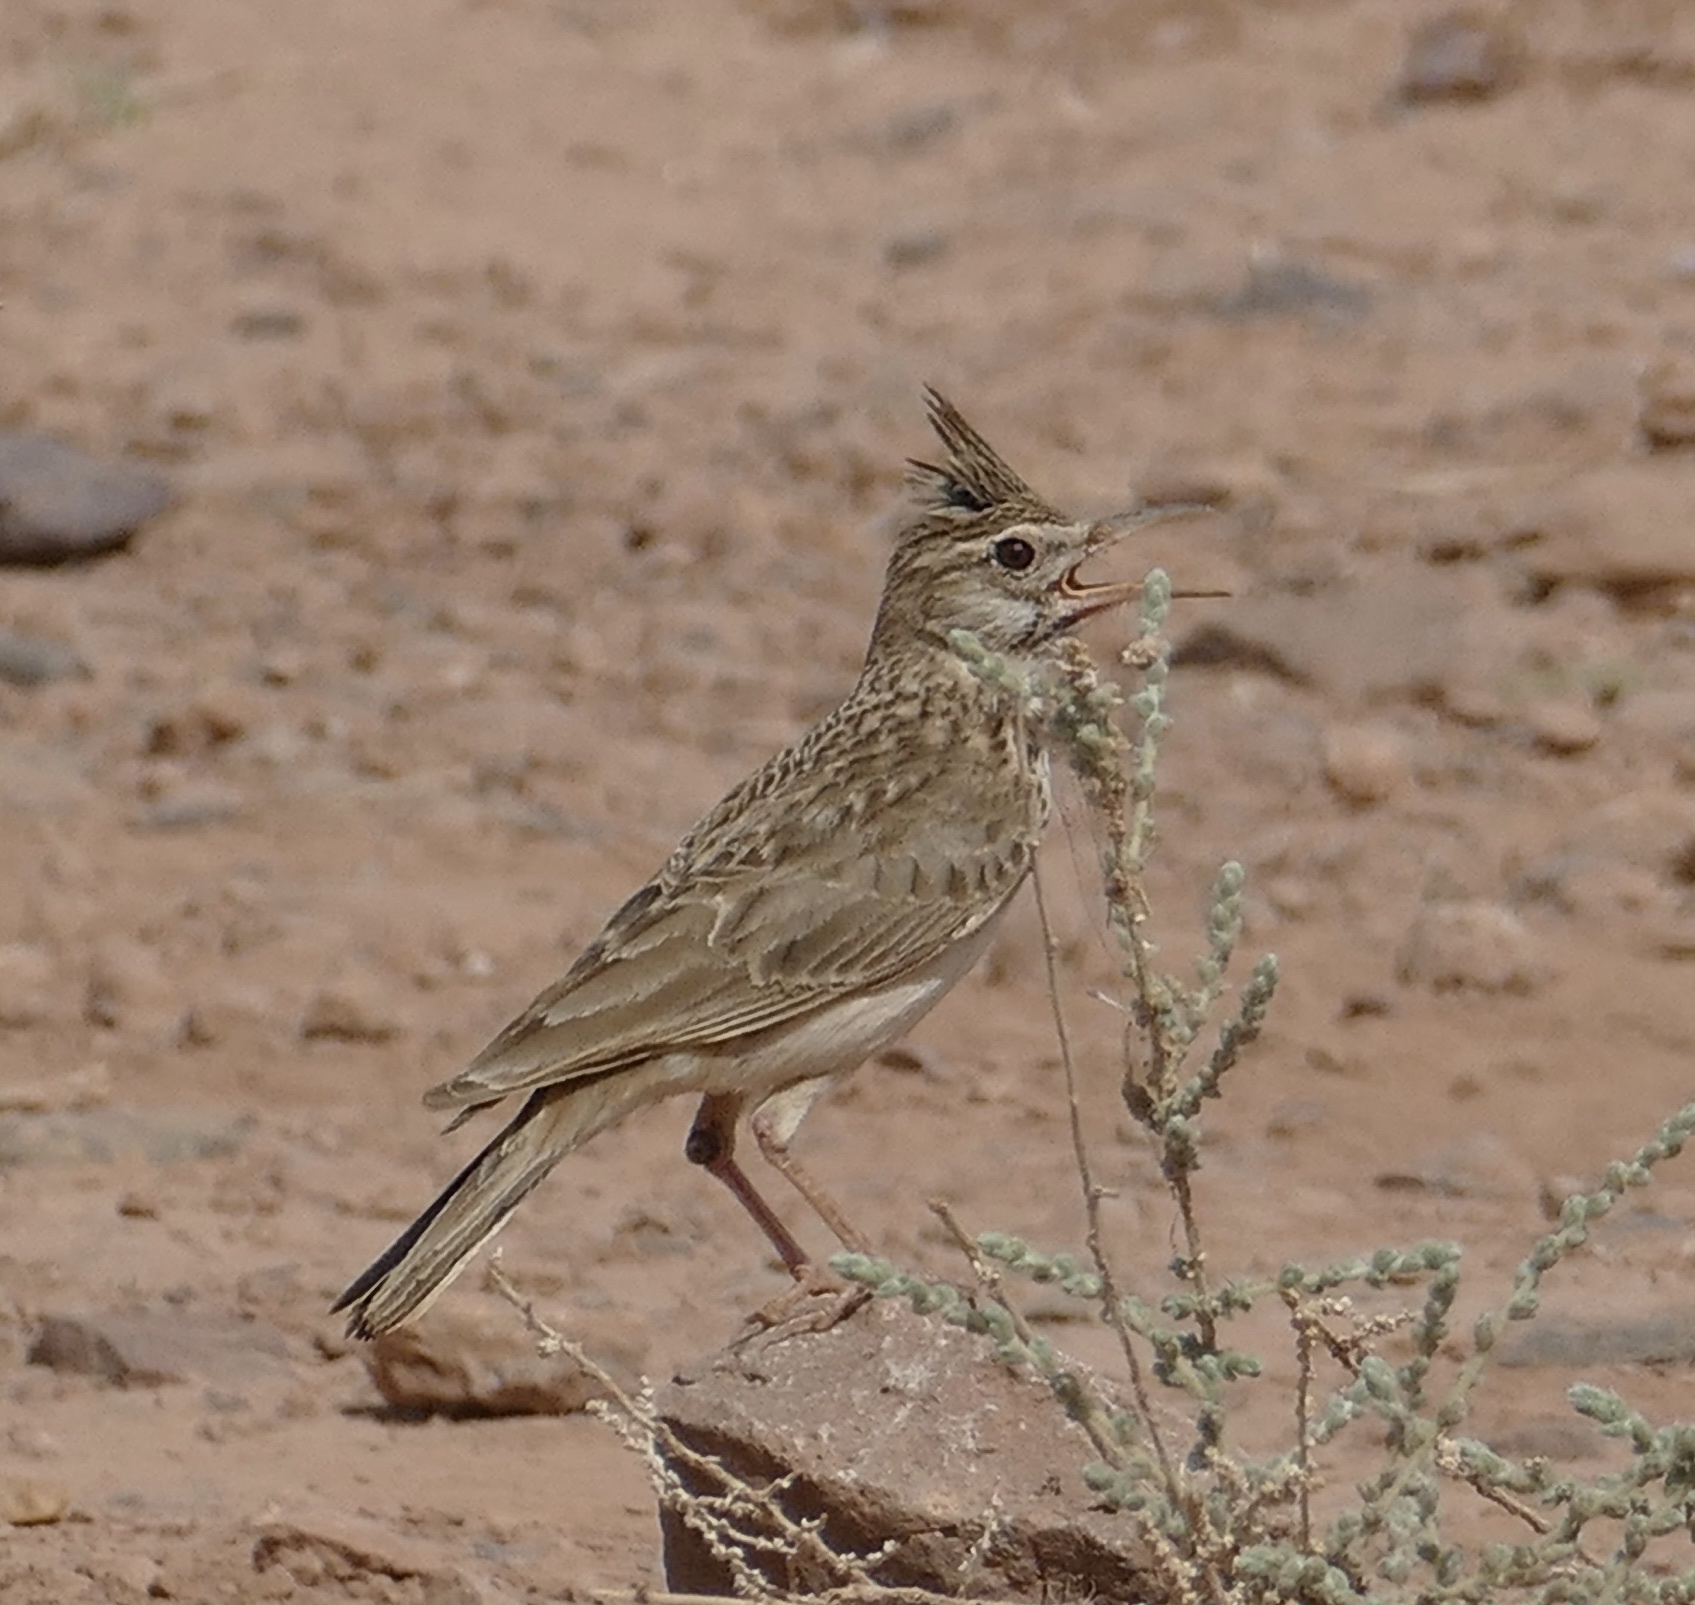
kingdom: Animalia
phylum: Chordata
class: Aves
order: Passeriformes
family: Alaudidae
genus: Galerida
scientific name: Galerida cristata
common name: Crested lark
